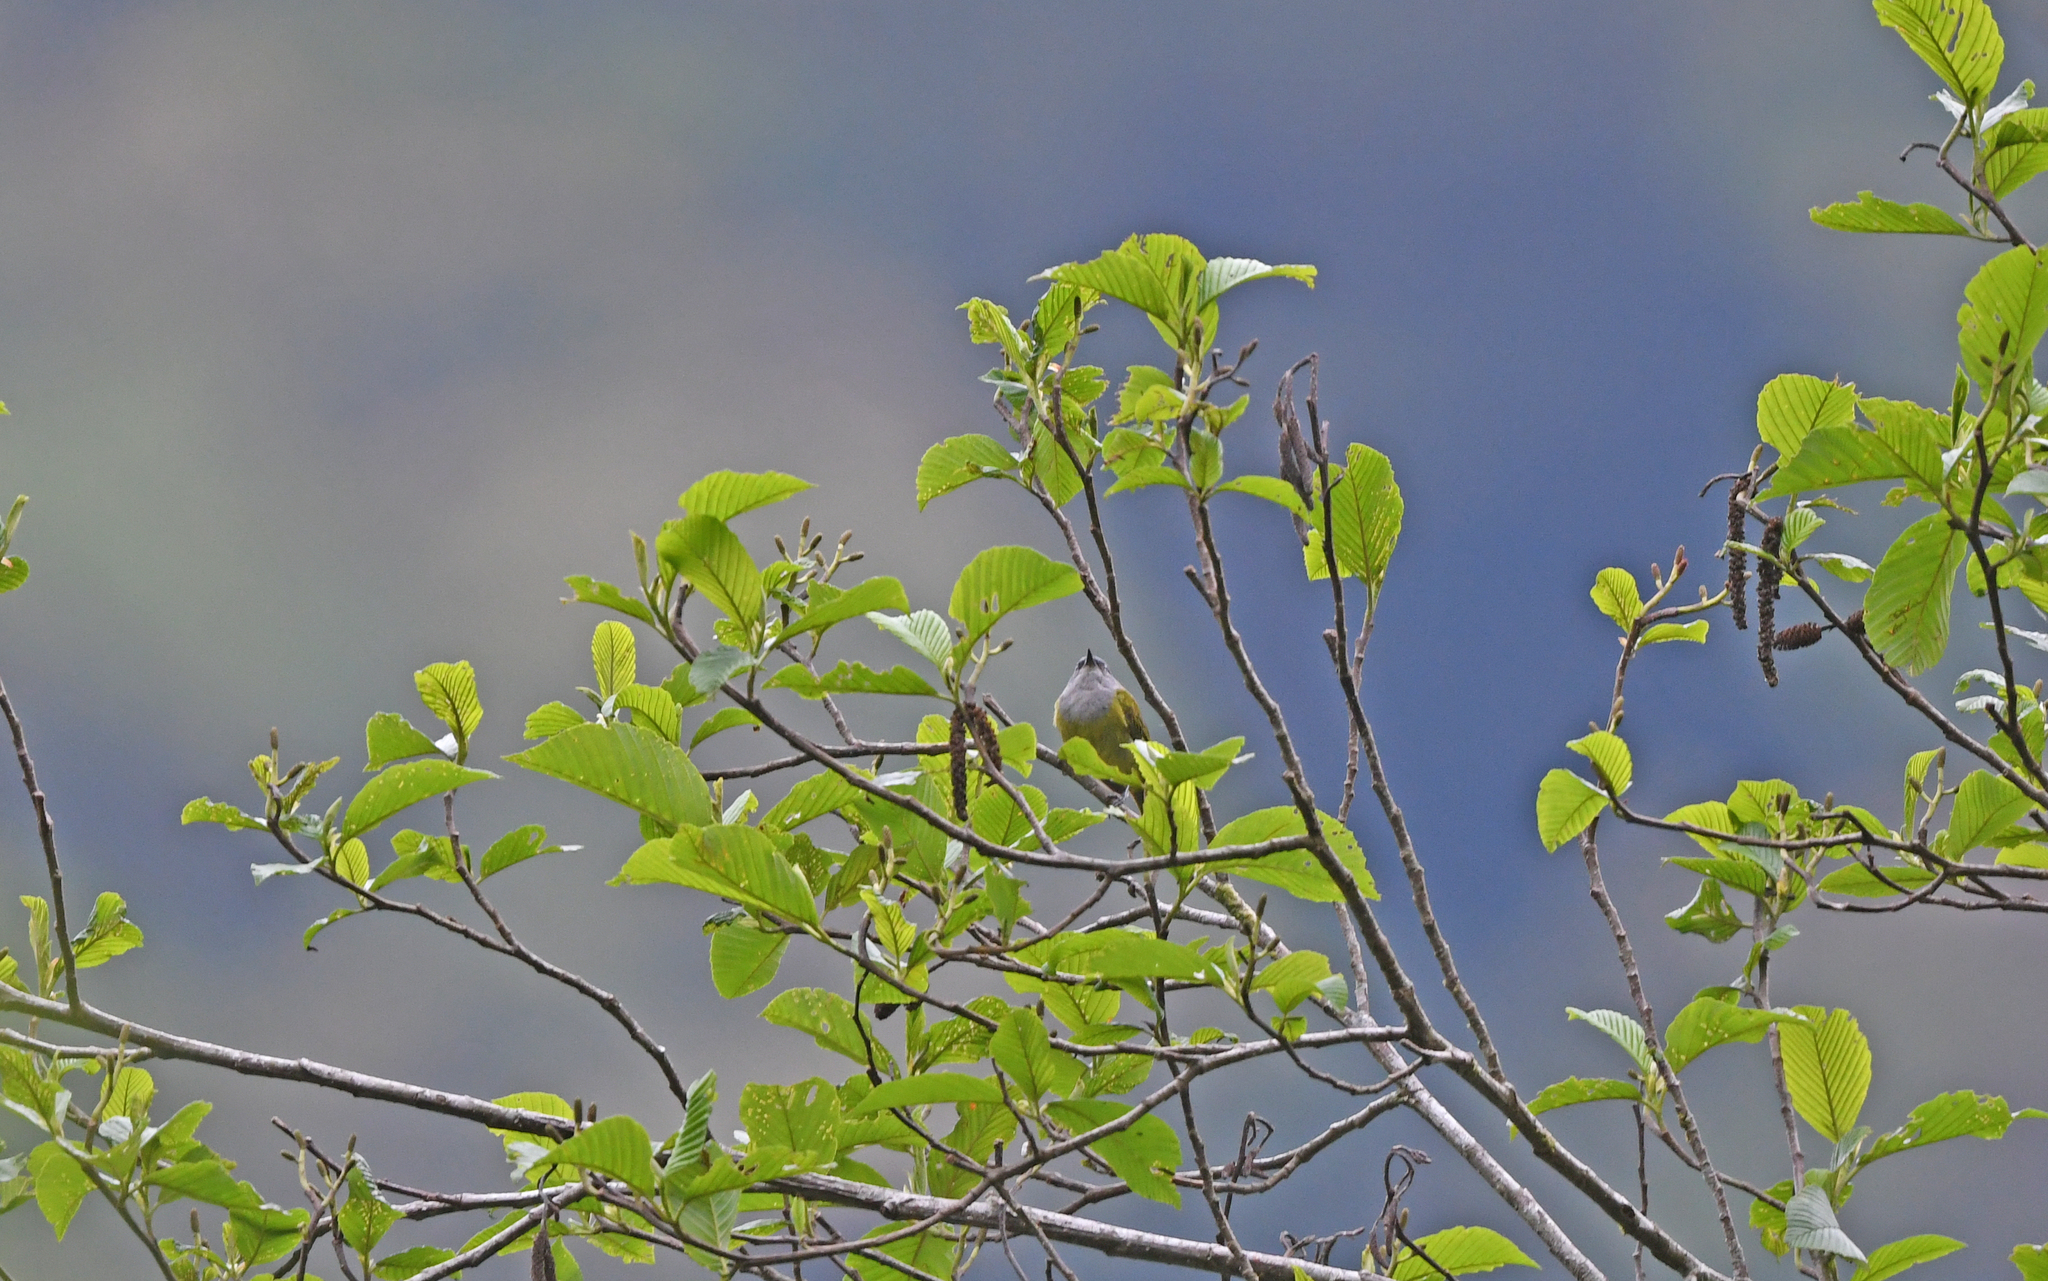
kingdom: Animalia
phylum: Chordata
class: Aves
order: Passeriformes
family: Thraupidae
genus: Conirostrum
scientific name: Conirostrum albifrons
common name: Capped conebill
